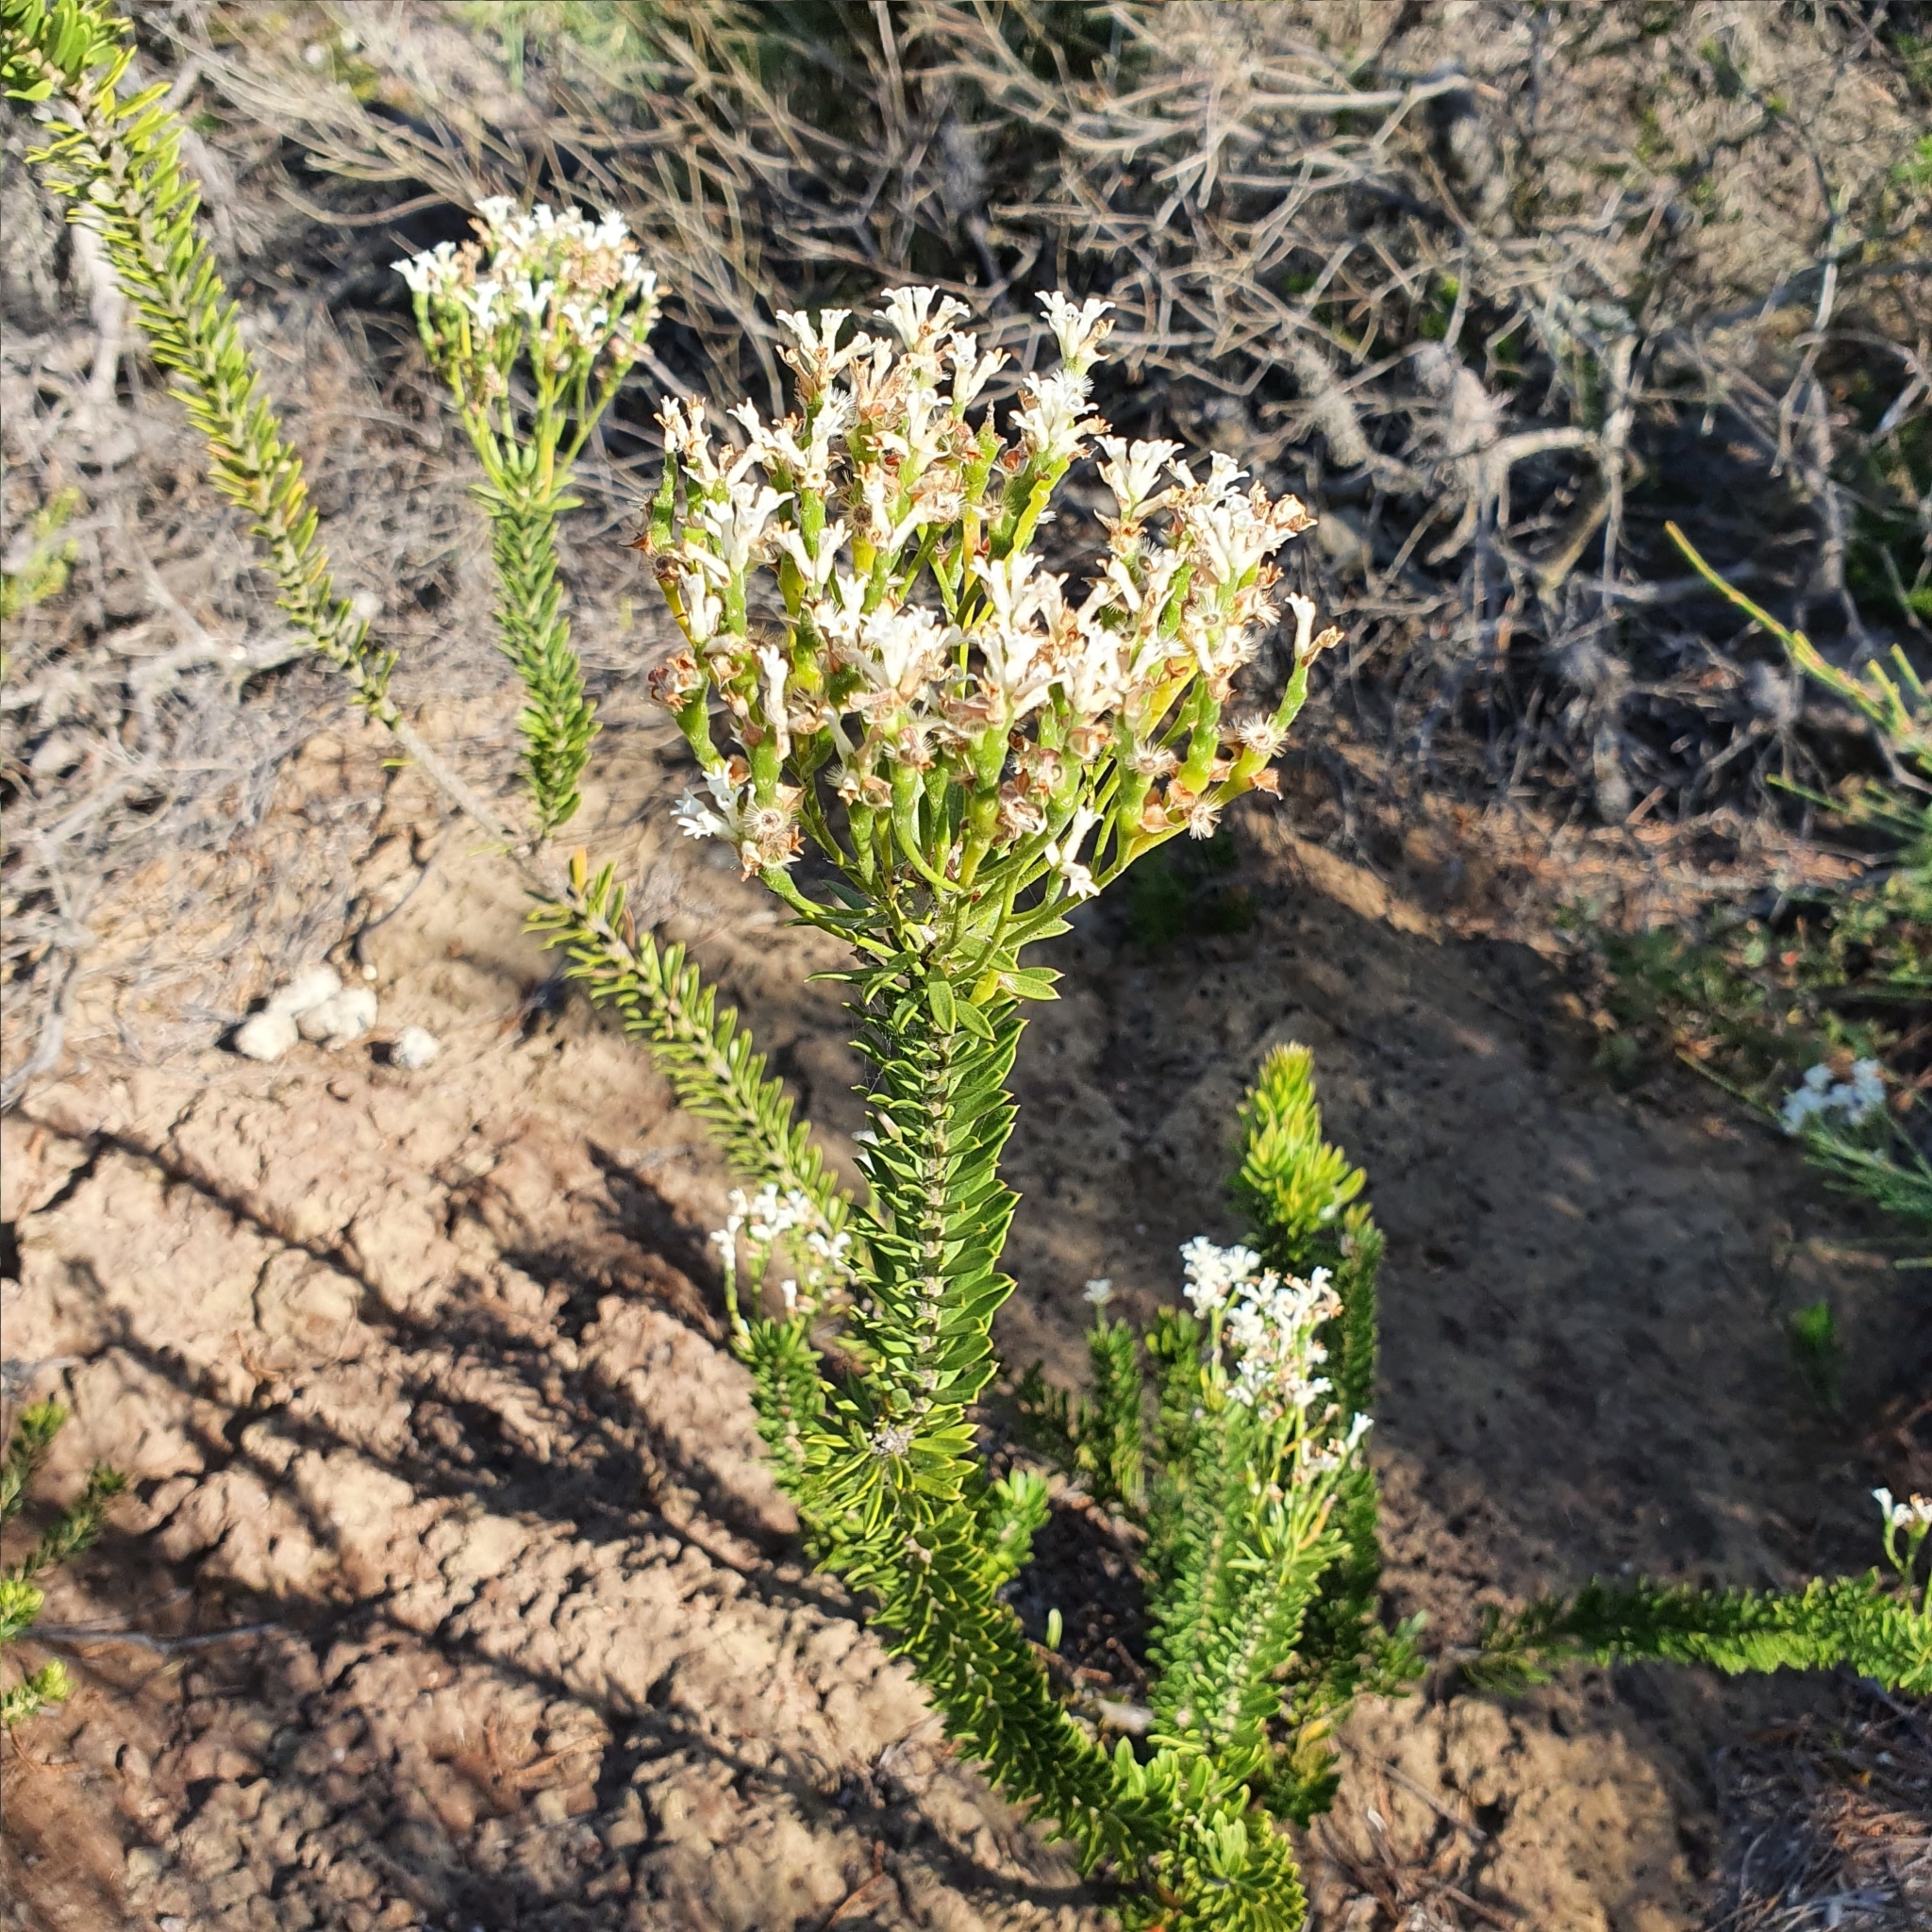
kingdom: Plantae
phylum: Tracheophyta
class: Magnoliopsida
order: Proteales
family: Proteaceae
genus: Conospermum
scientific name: Conospermum ellipticum
